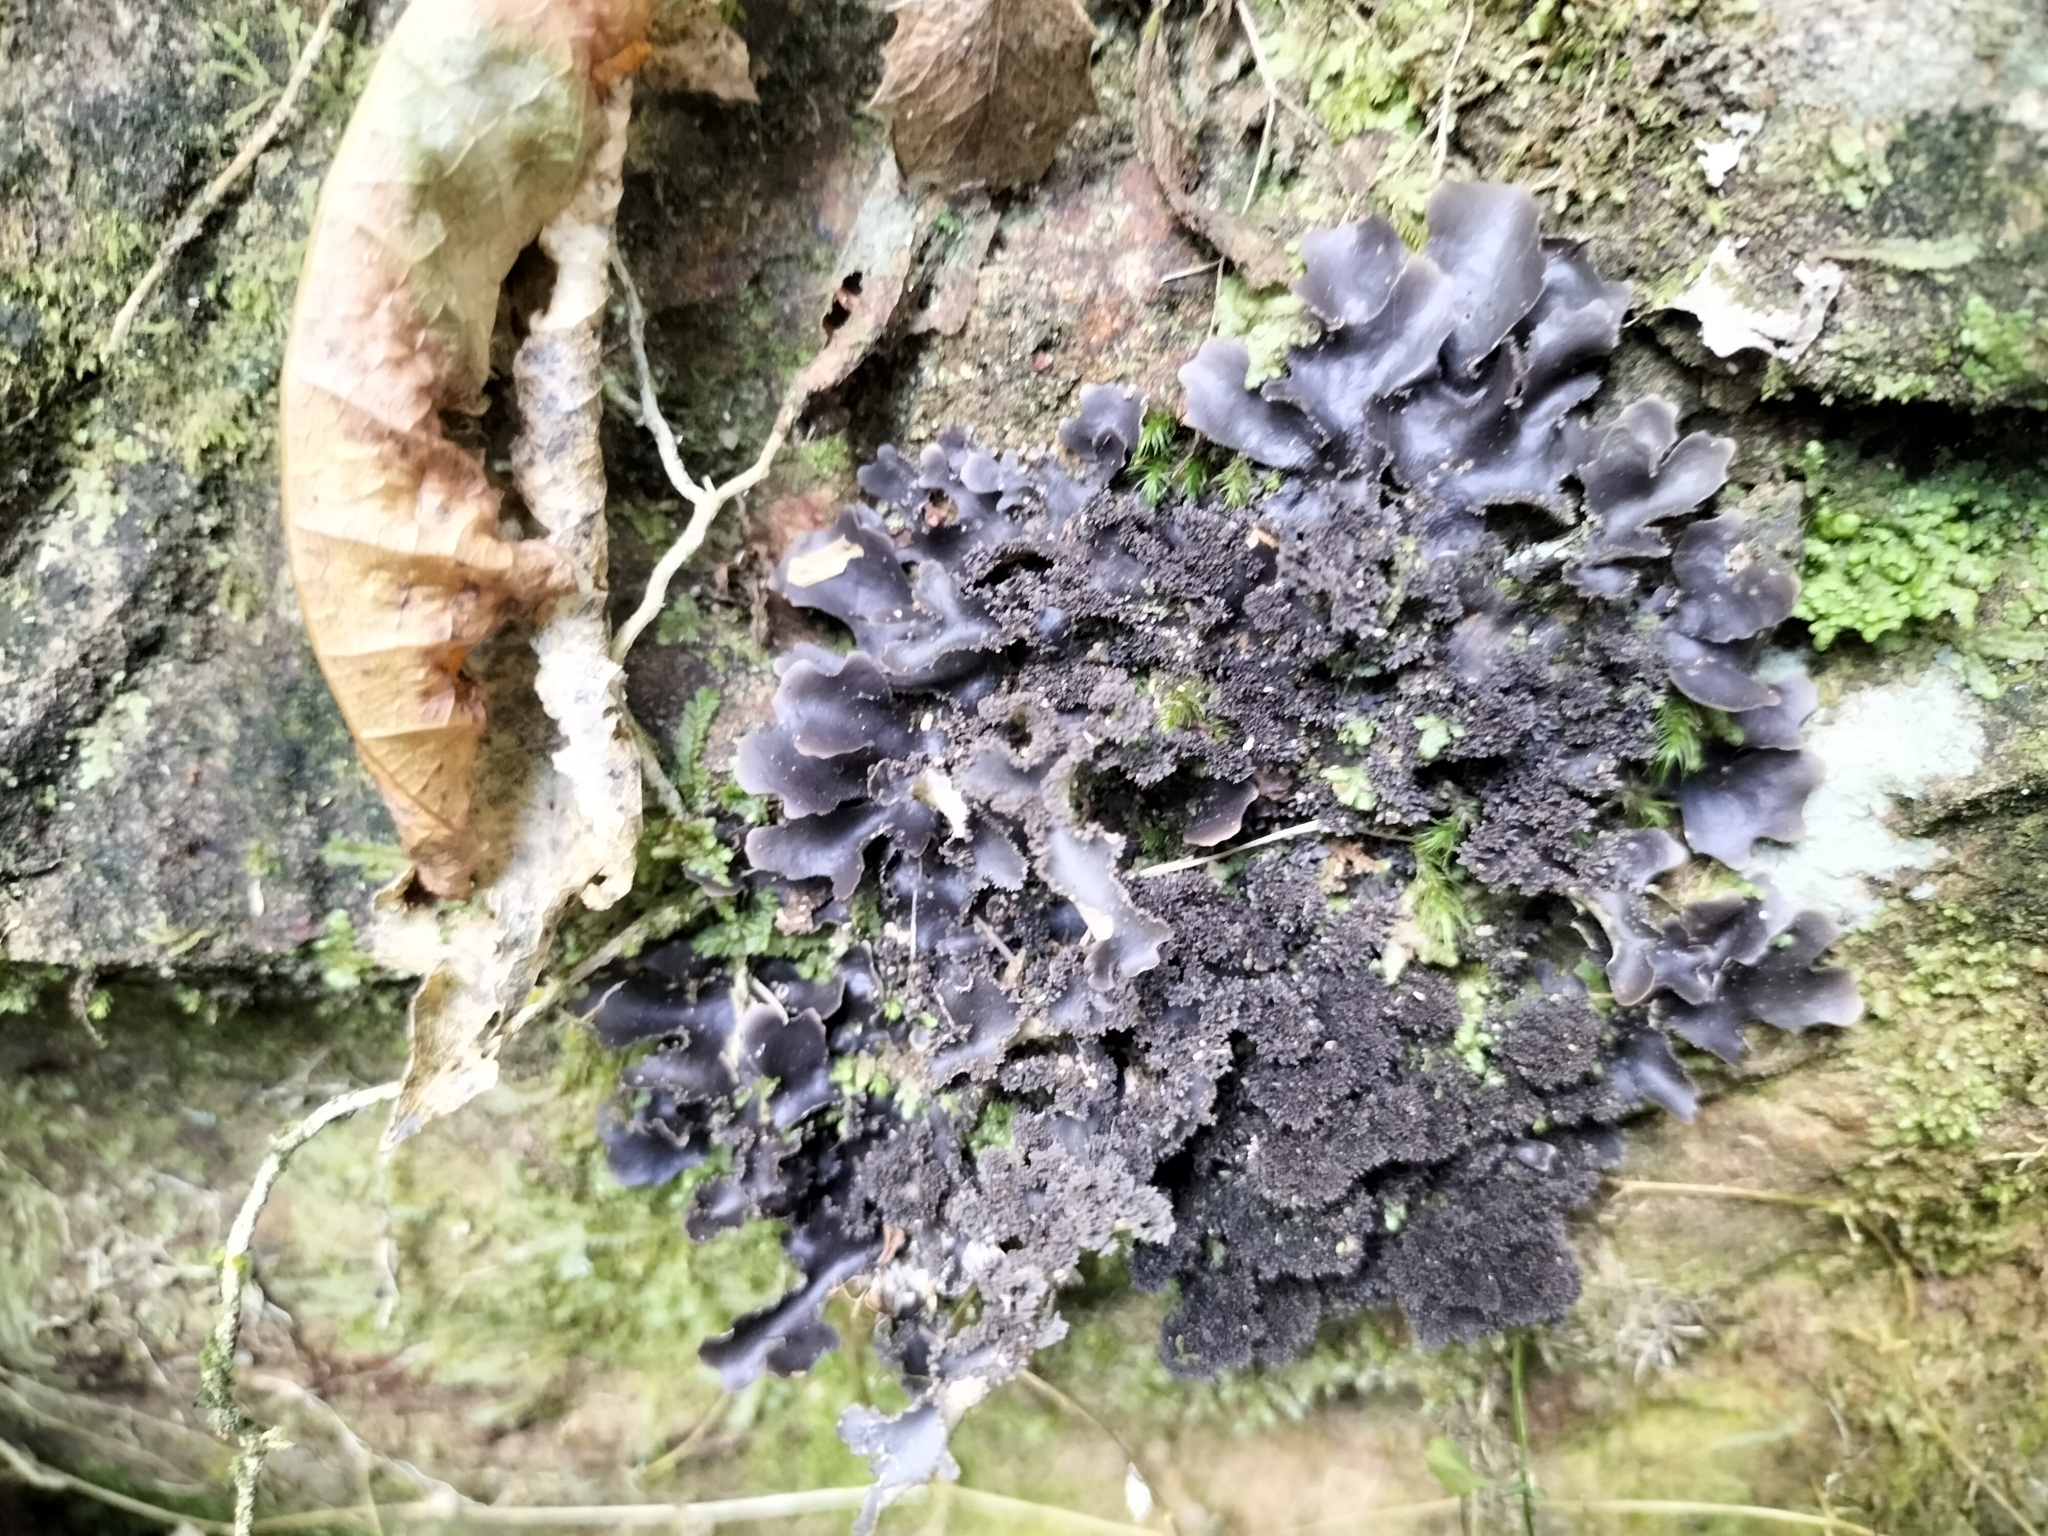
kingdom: Fungi
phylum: Ascomycota
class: Lecanoromycetes
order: Peltigerales
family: Lobariaceae
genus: Pseudocyphellaria
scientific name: Pseudocyphellaria dissimilis
